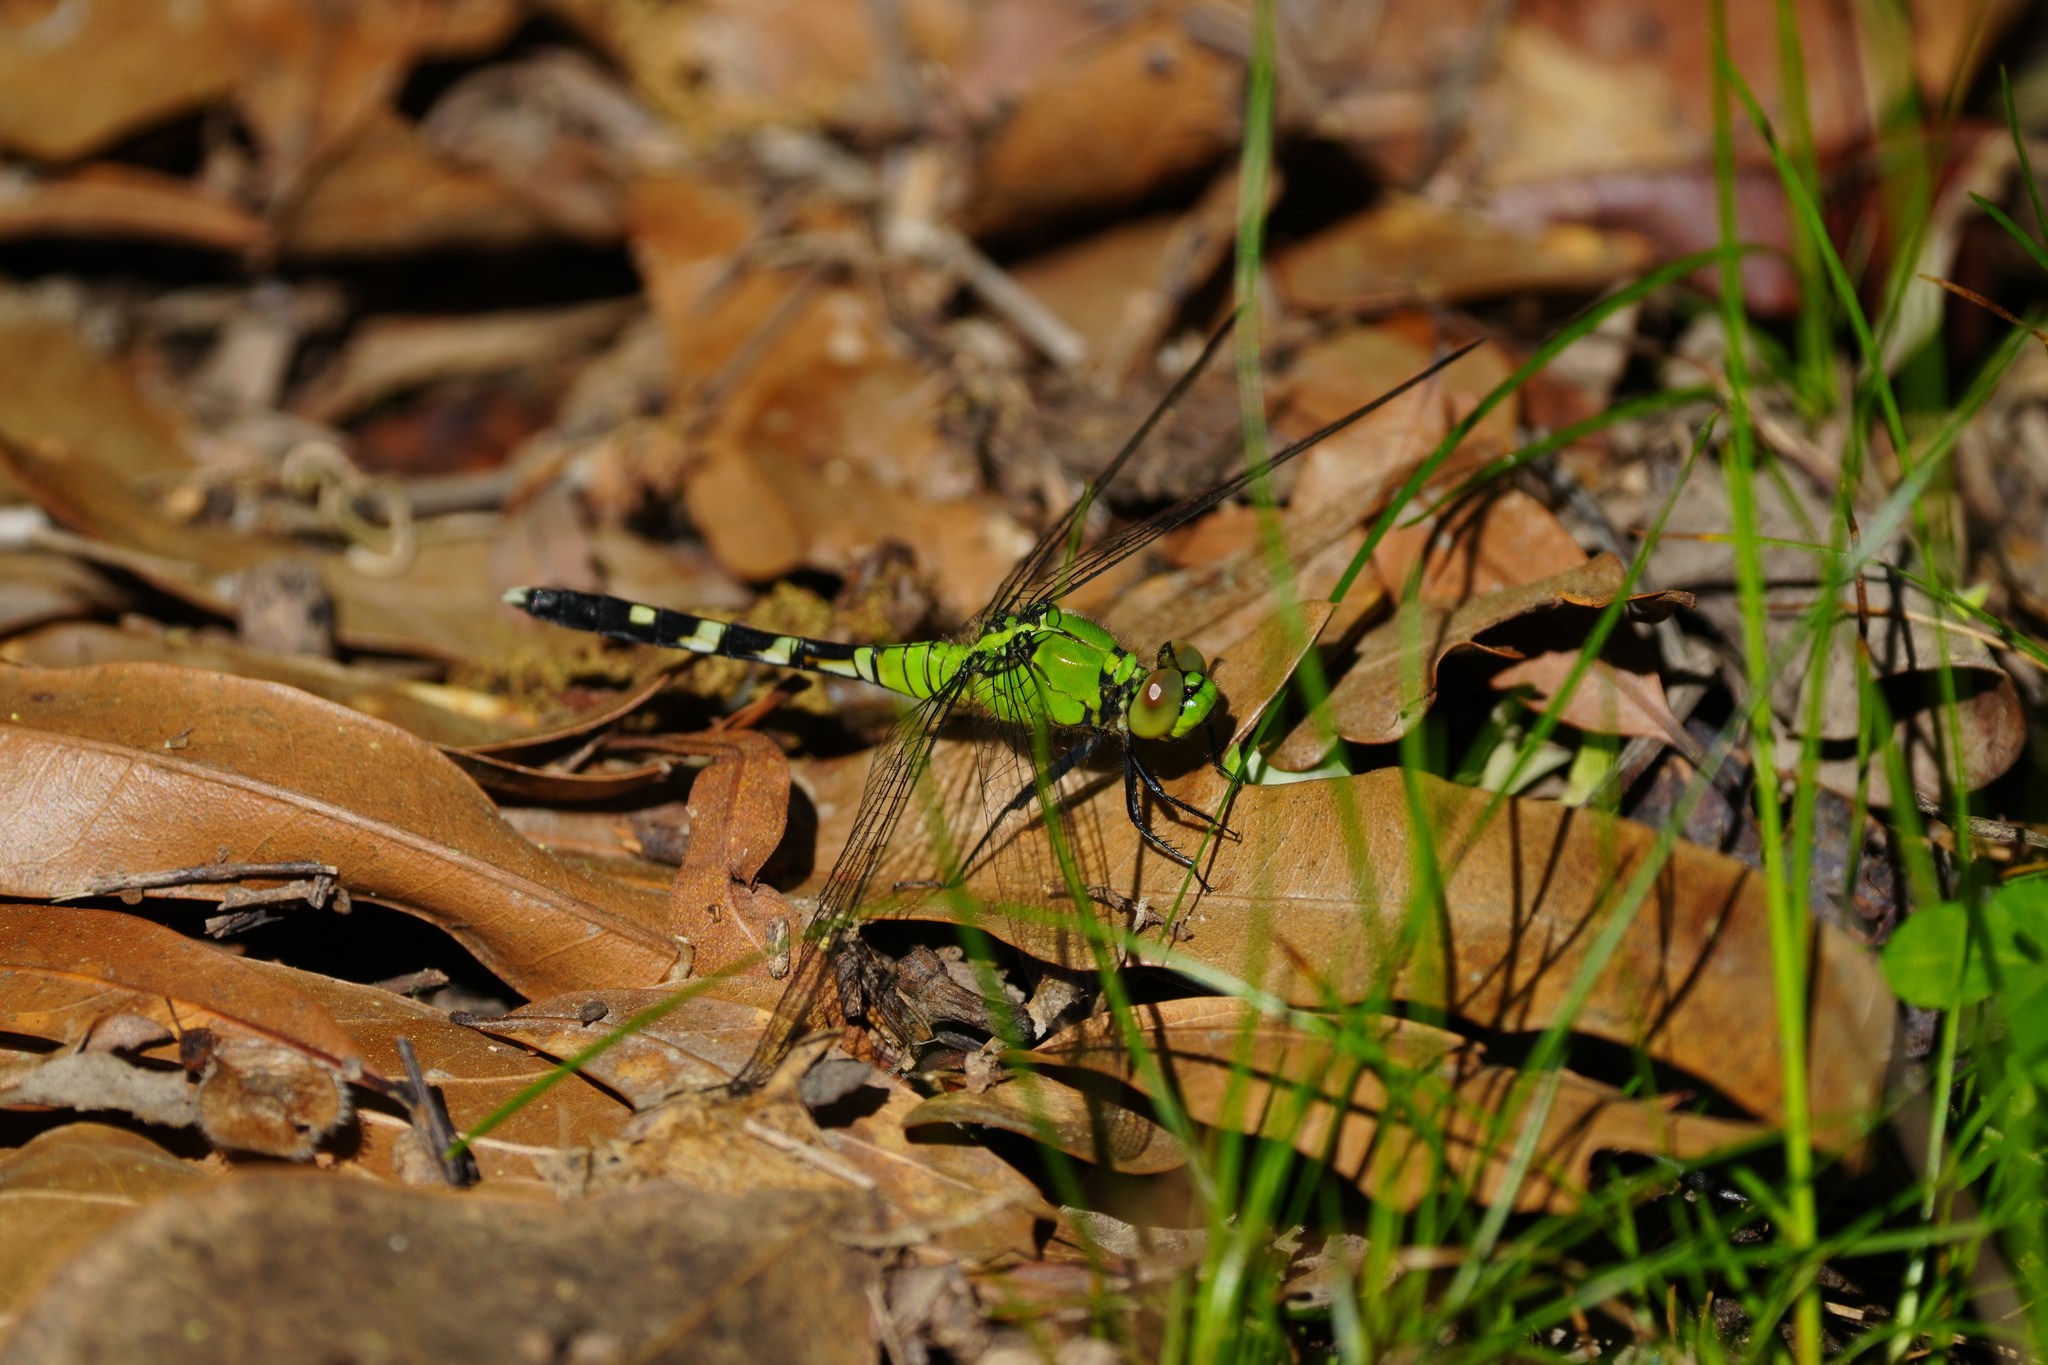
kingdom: Animalia
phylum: Arthropoda
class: Insecta
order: Odonata
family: Libellulidae
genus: Erythemis
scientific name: Erythemis simplicicollis
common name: Eastern pondhawk
